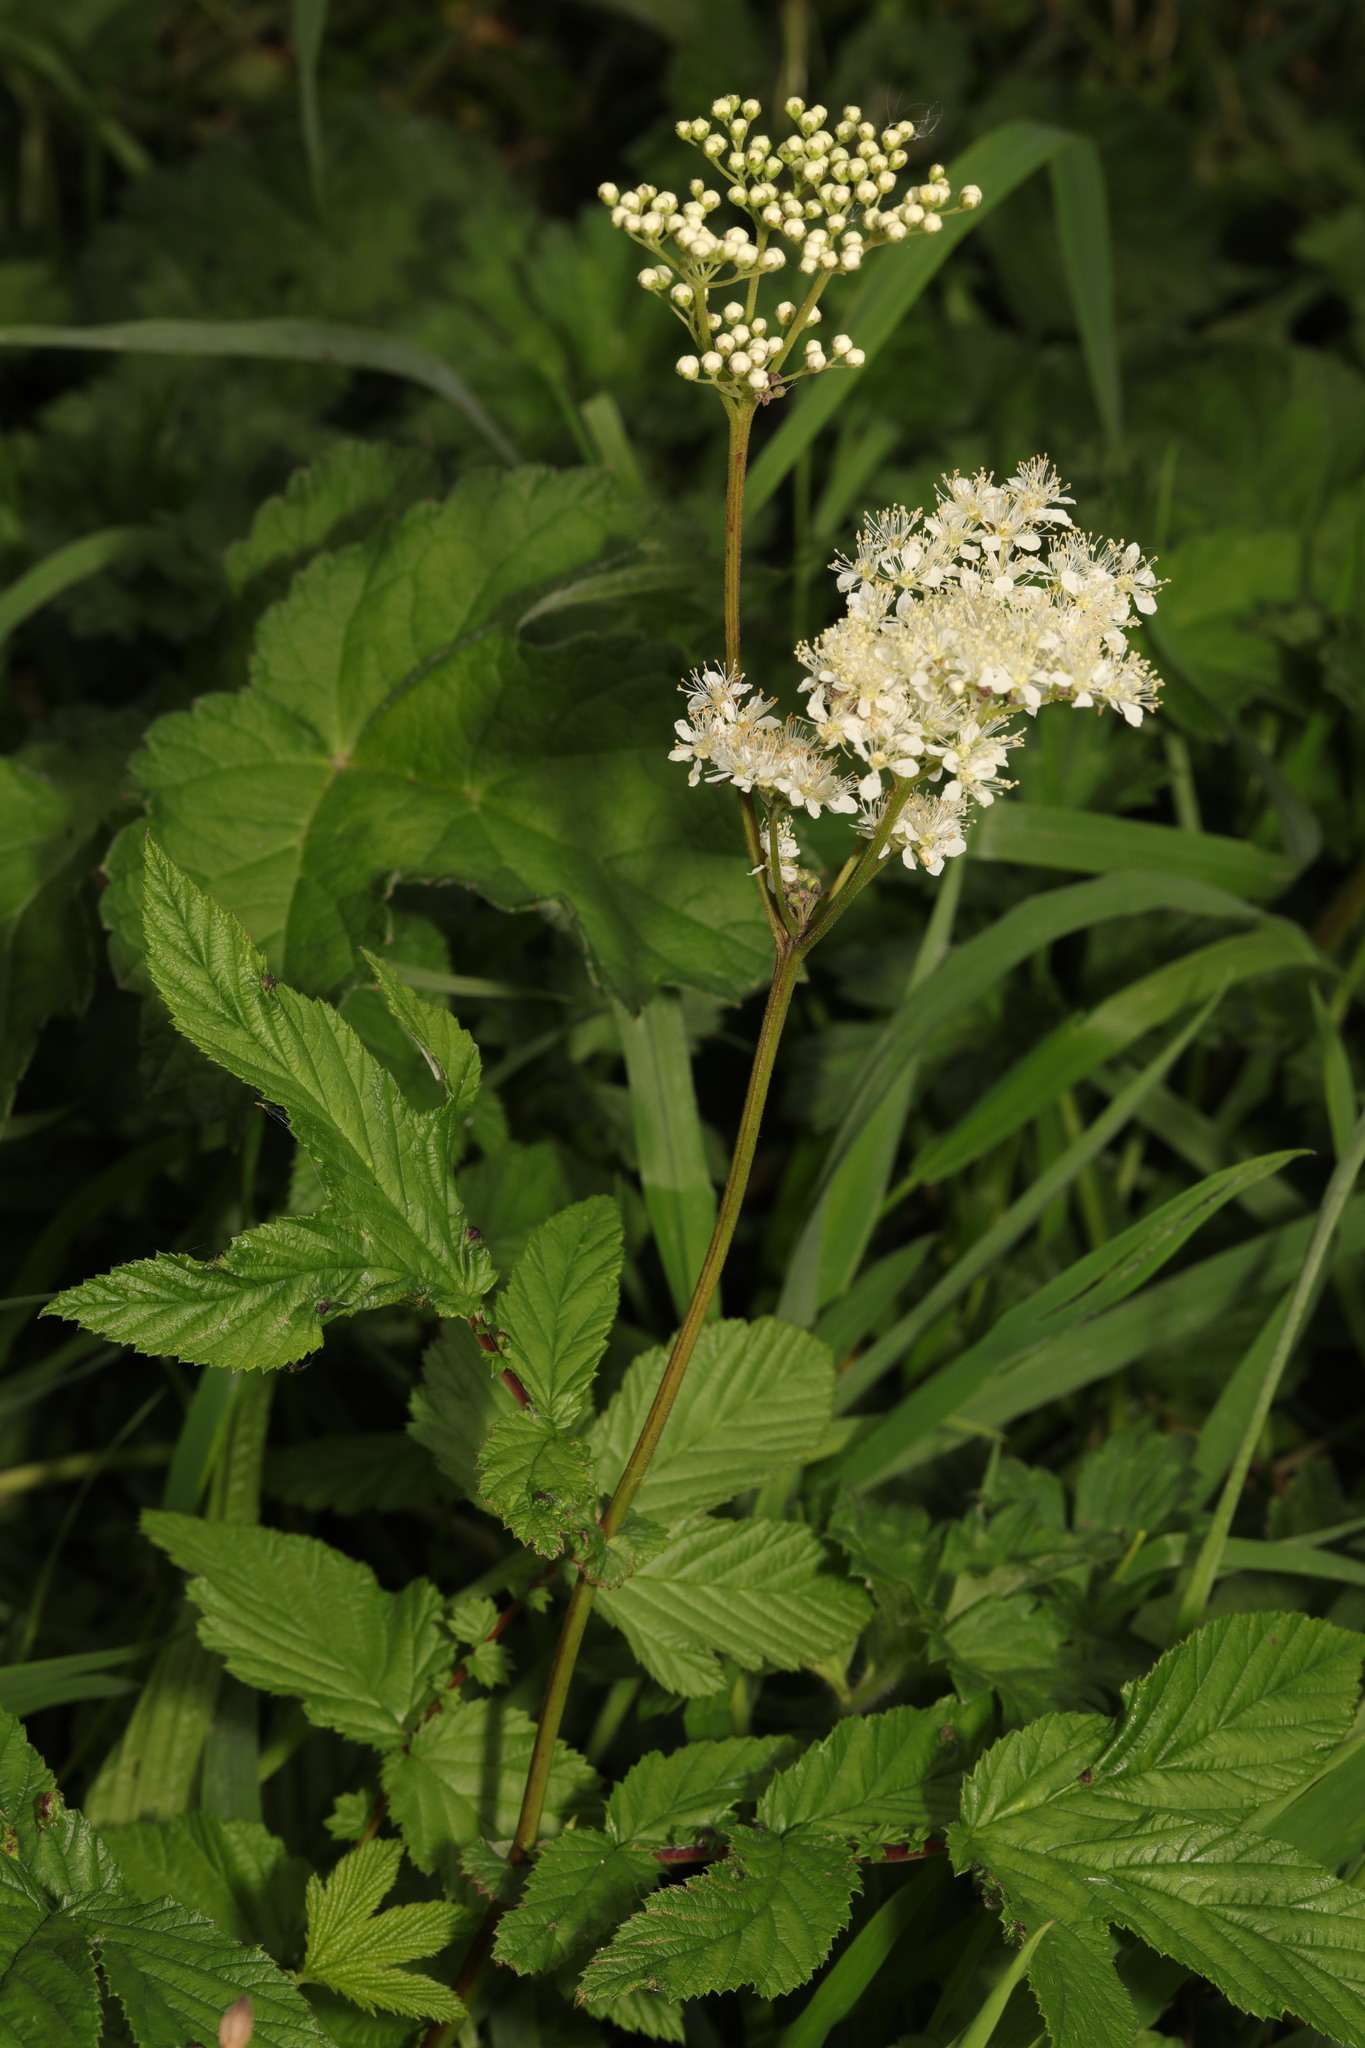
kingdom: Plantae
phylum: Tracheophyta
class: Magnoliopsida
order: Rosales
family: Rosaceae
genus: Filipendula
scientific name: Filipendula ulmaria
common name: Meadowsweet
